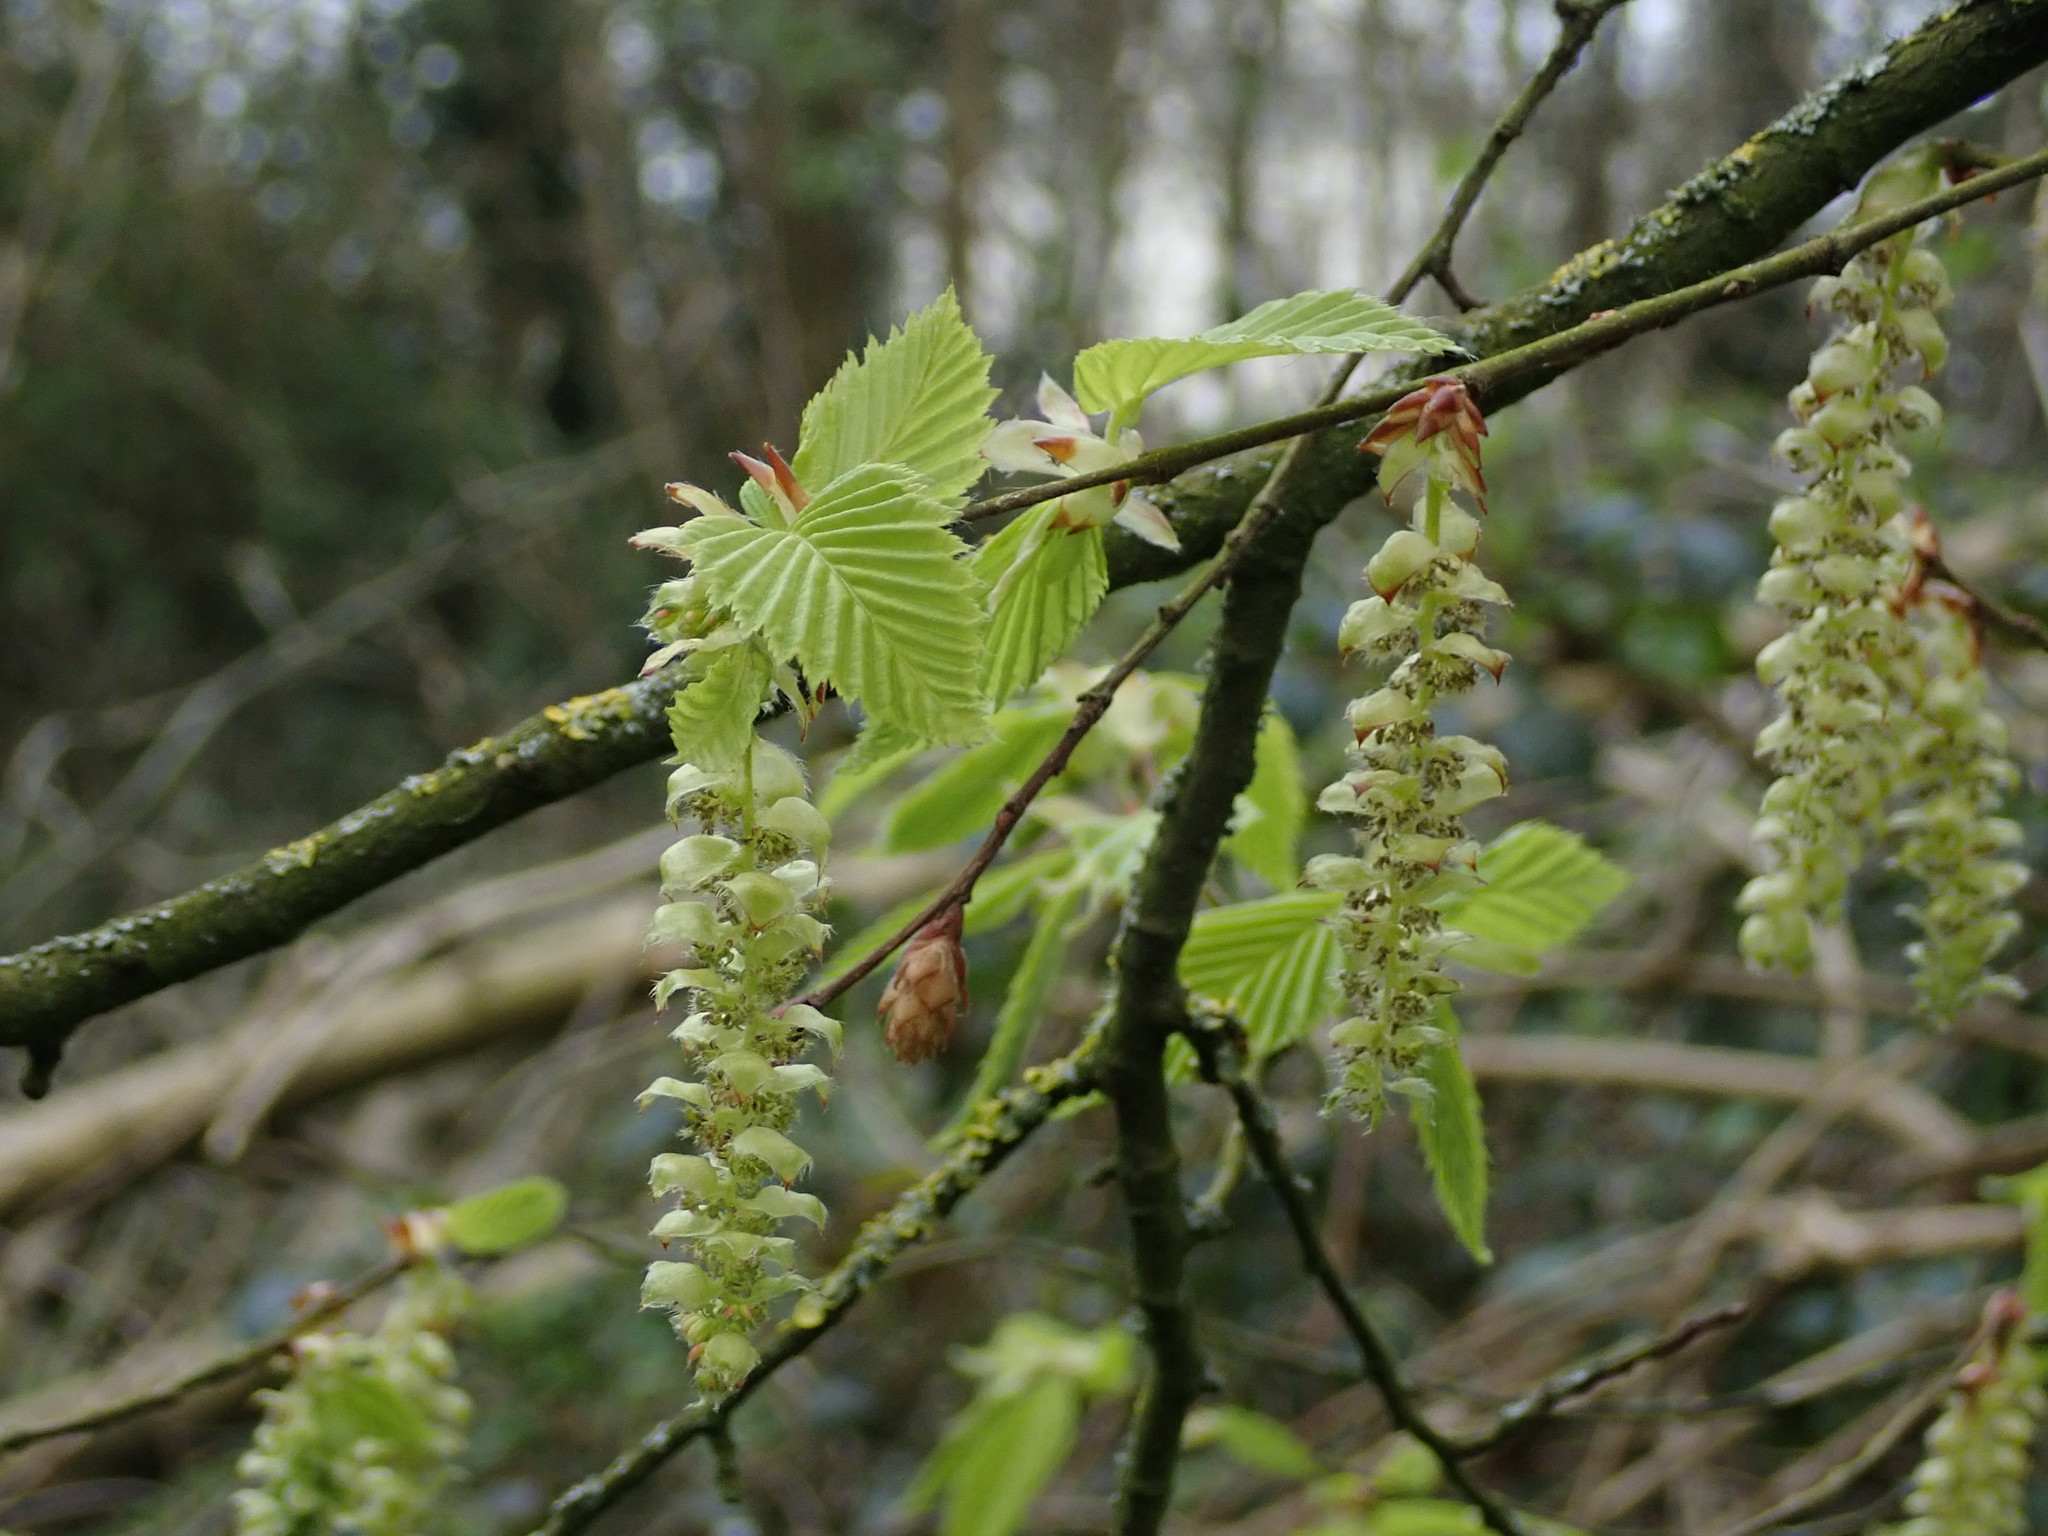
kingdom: Plantae
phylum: Tracheophyta
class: Magnoliopsida
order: Fagales
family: Betulaceae
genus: Carpinus
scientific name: Carpinus betulus
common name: Hornbeam
